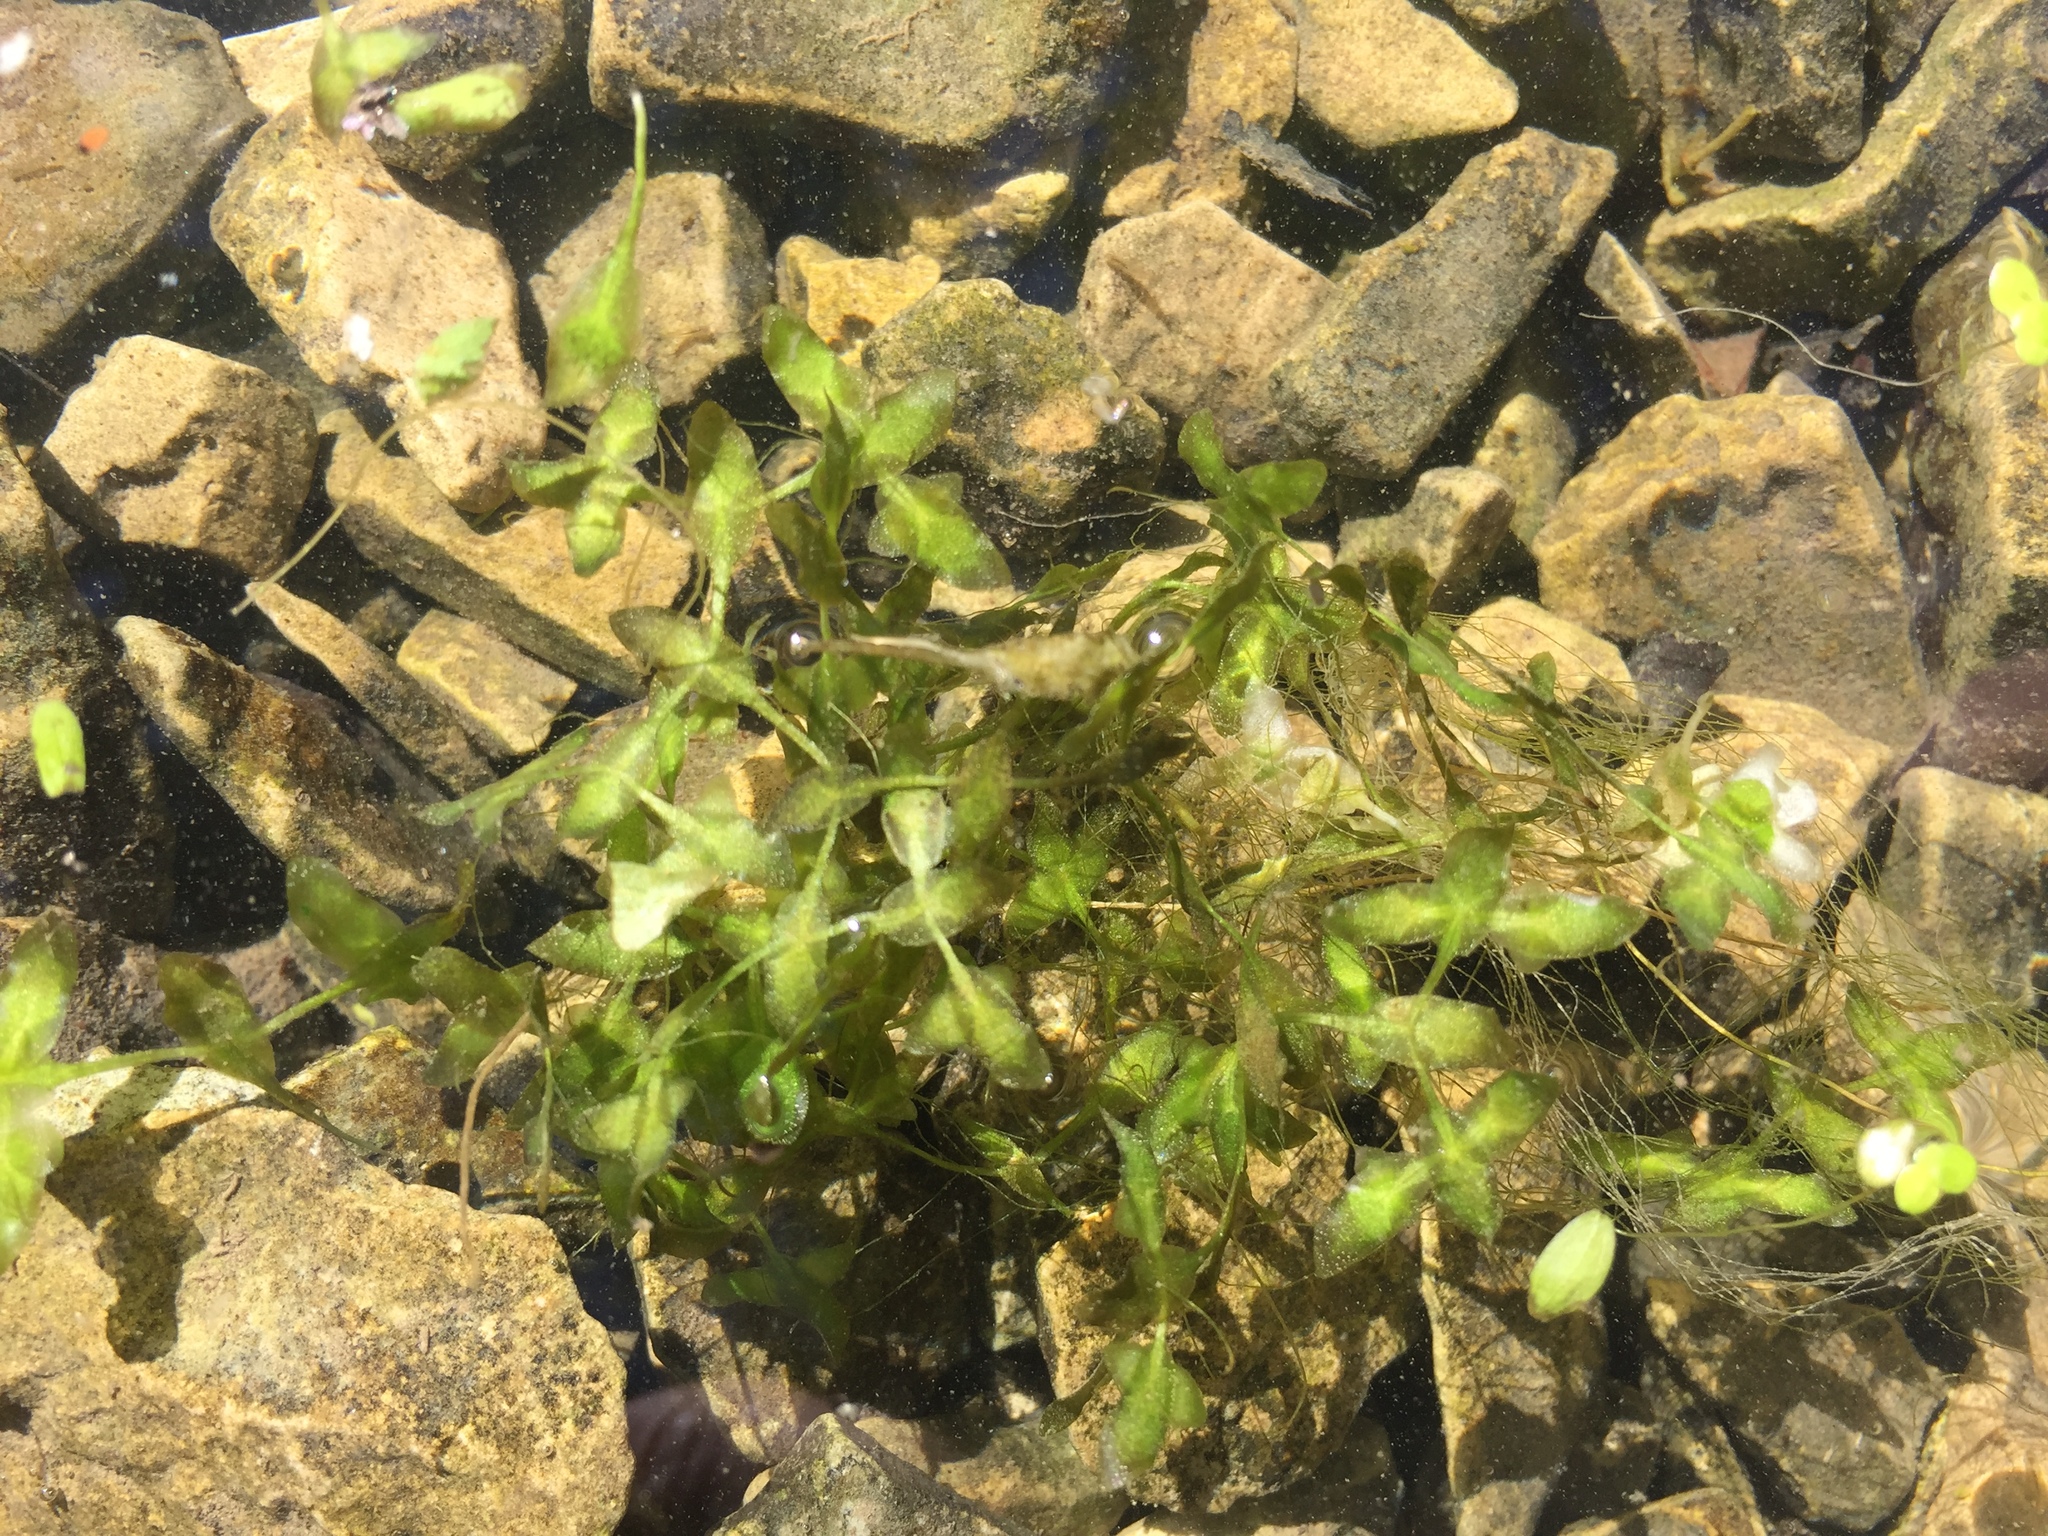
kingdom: Plantae
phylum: Tracheophyta
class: Liliopsida
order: Alismatales
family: Araceae
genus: Lemna
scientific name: Lemna trisulca
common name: Ivy-leaved duckweed
